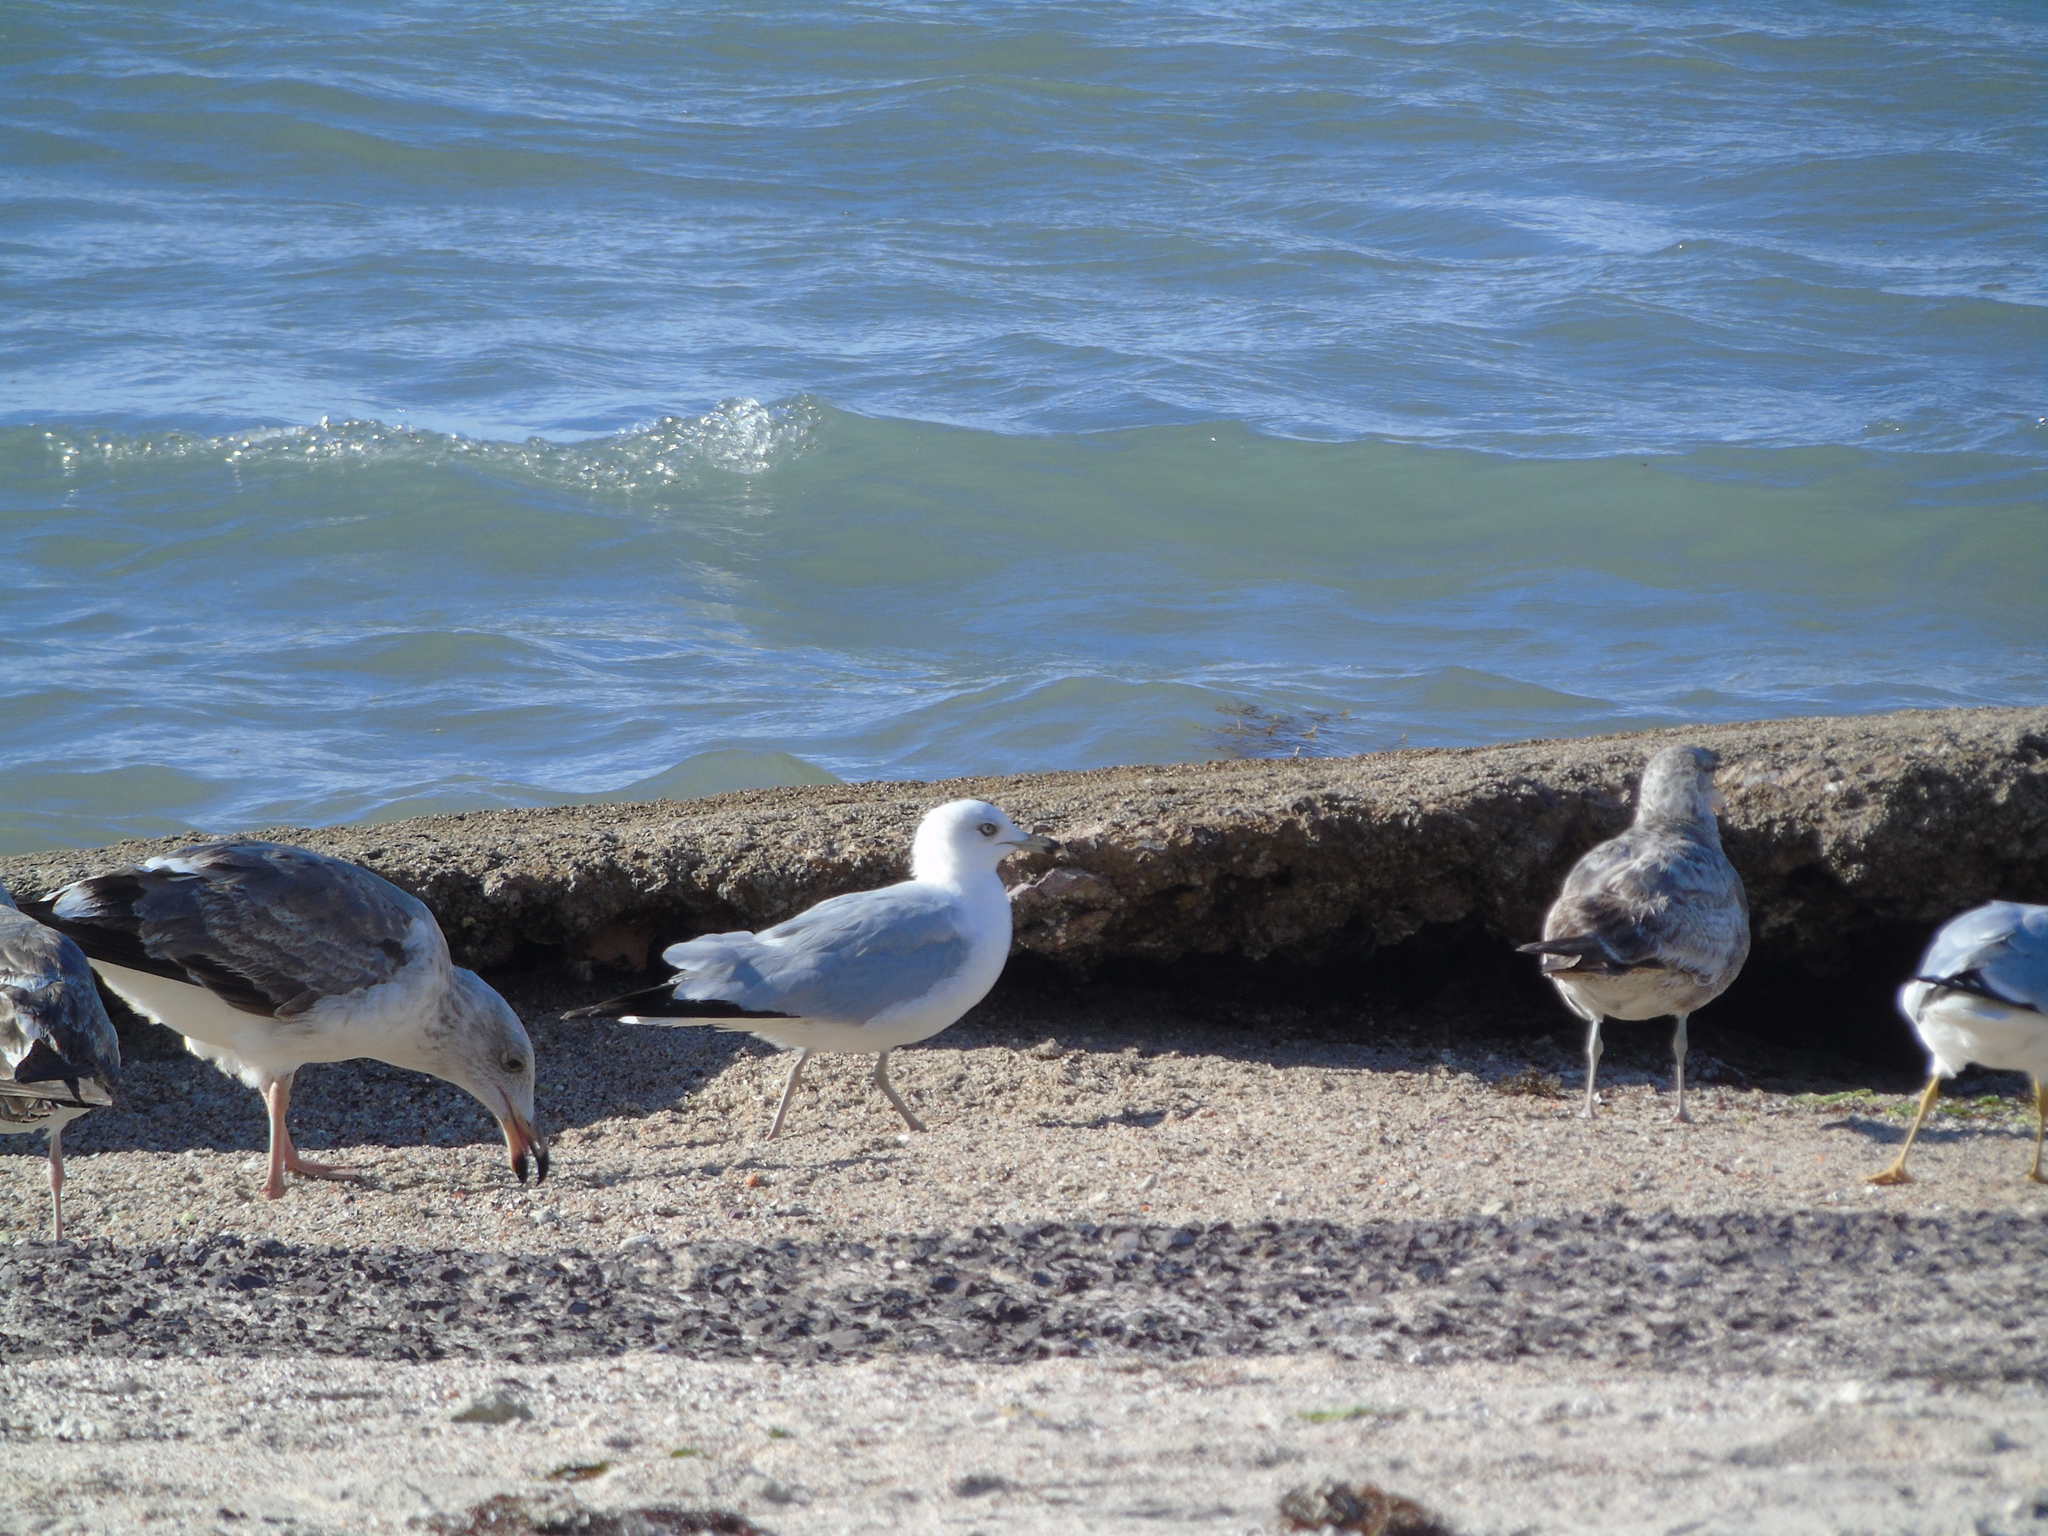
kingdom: Animalia
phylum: Chordata
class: Aves
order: Charadriiformes
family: Laridae
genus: Larus
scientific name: Larus delawarensis
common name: Ring-billed gull
